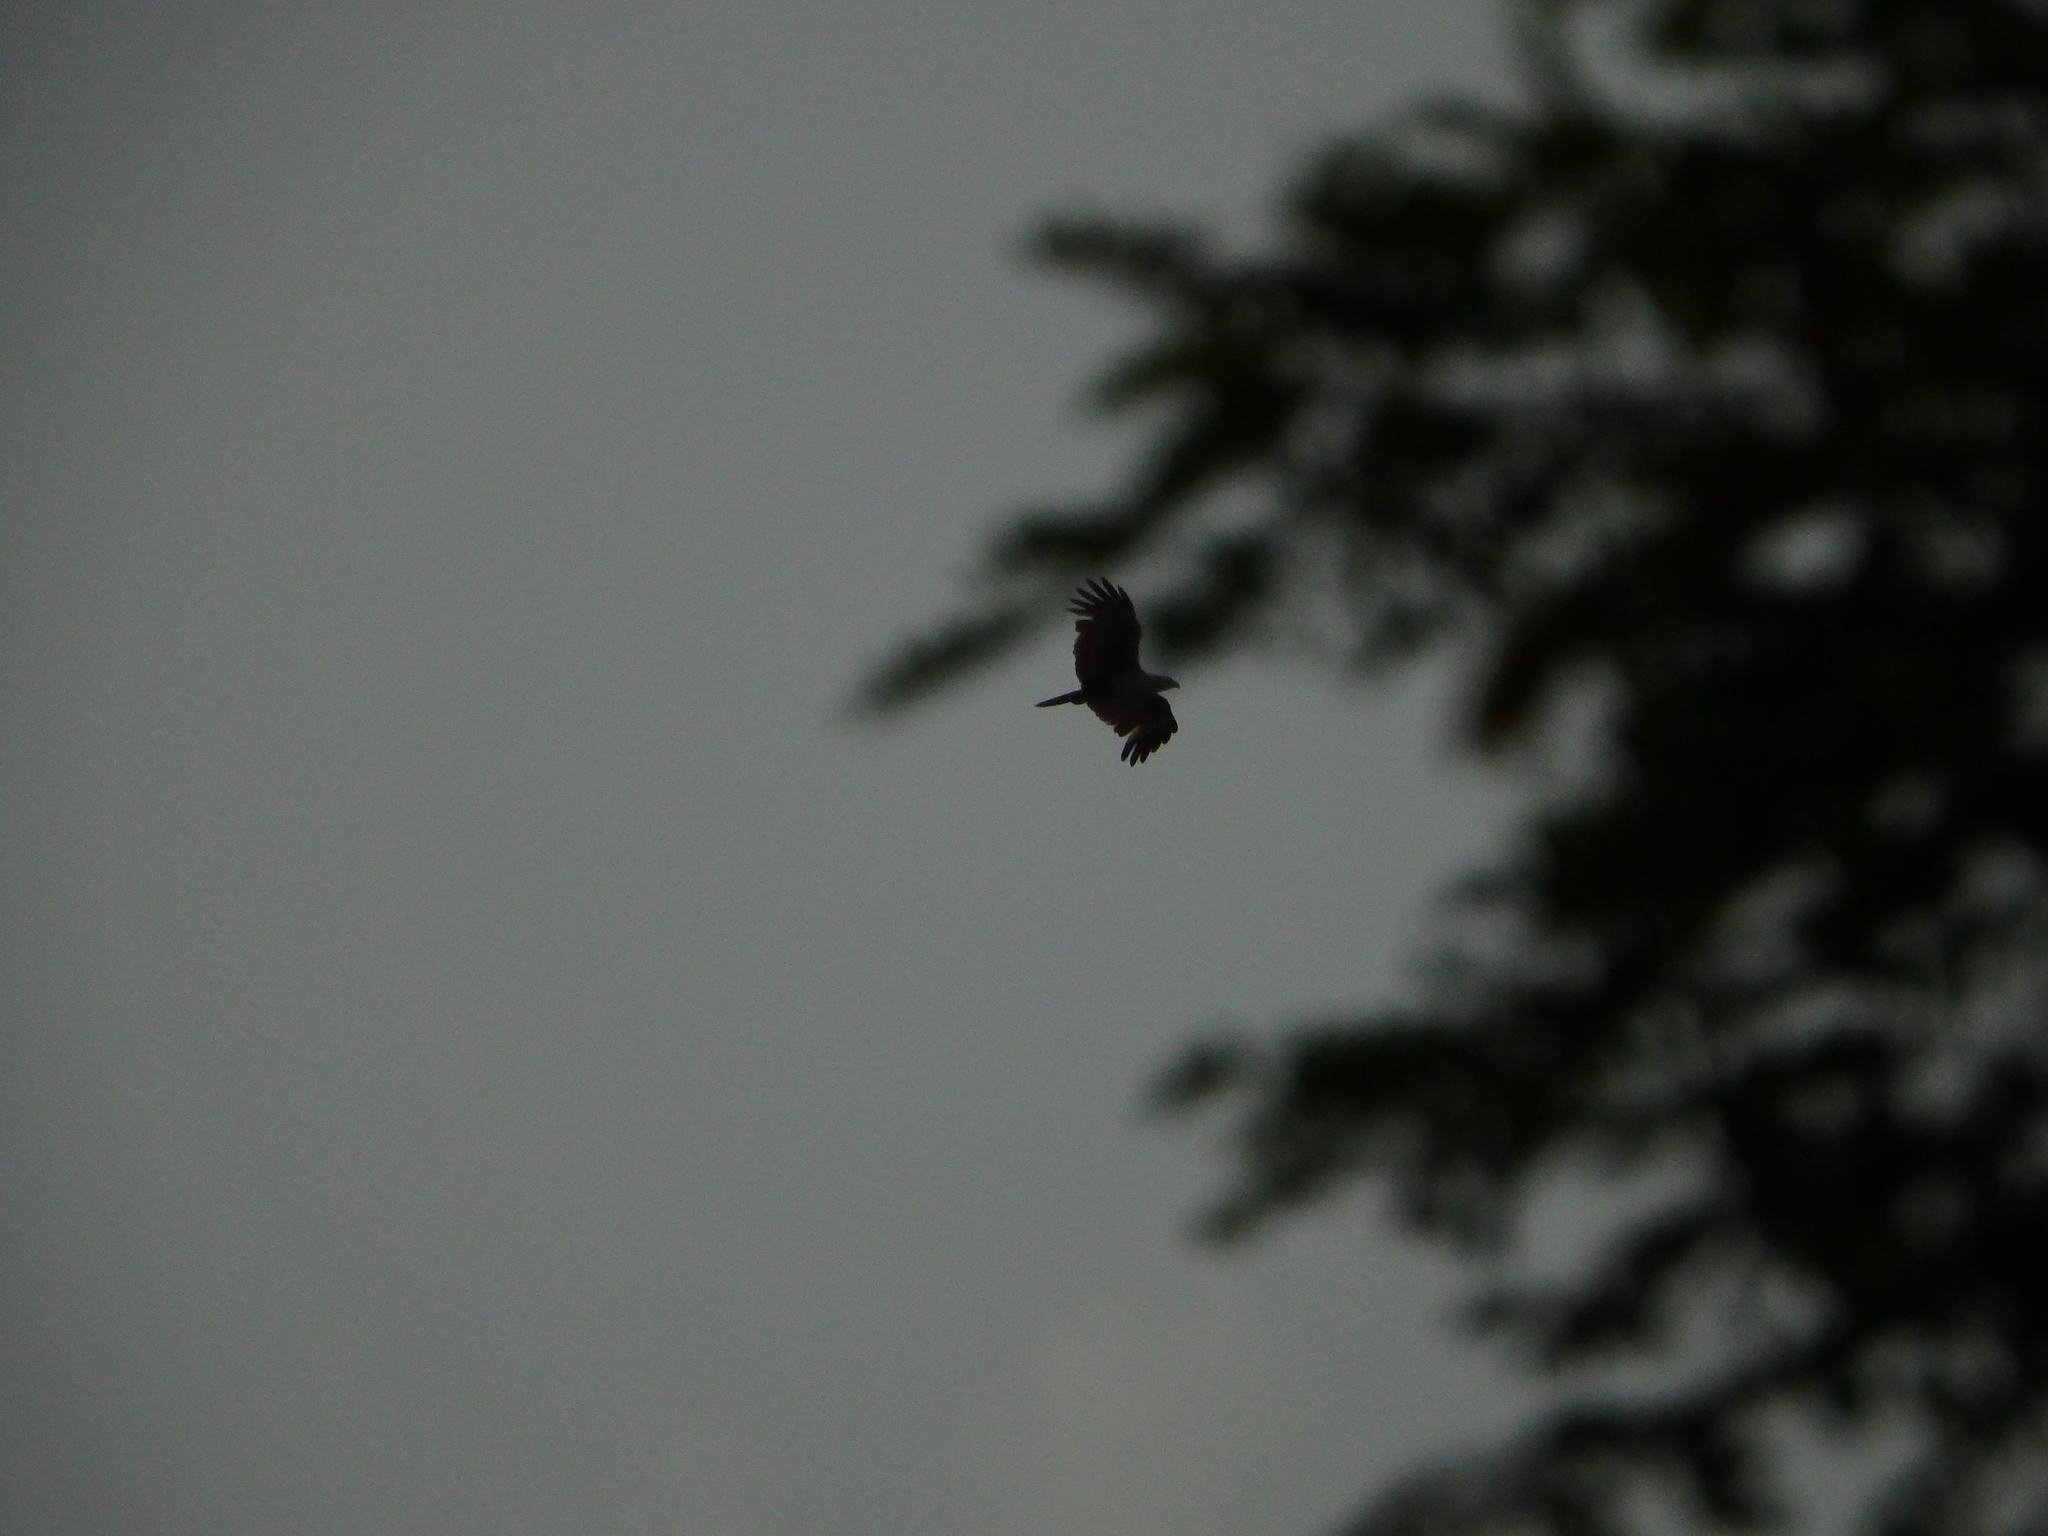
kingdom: Animalia
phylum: Chordata
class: Aves
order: Accipitriformes
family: Accipitridae
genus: Haliastur
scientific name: Haliastur indus
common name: Brahminy kite
